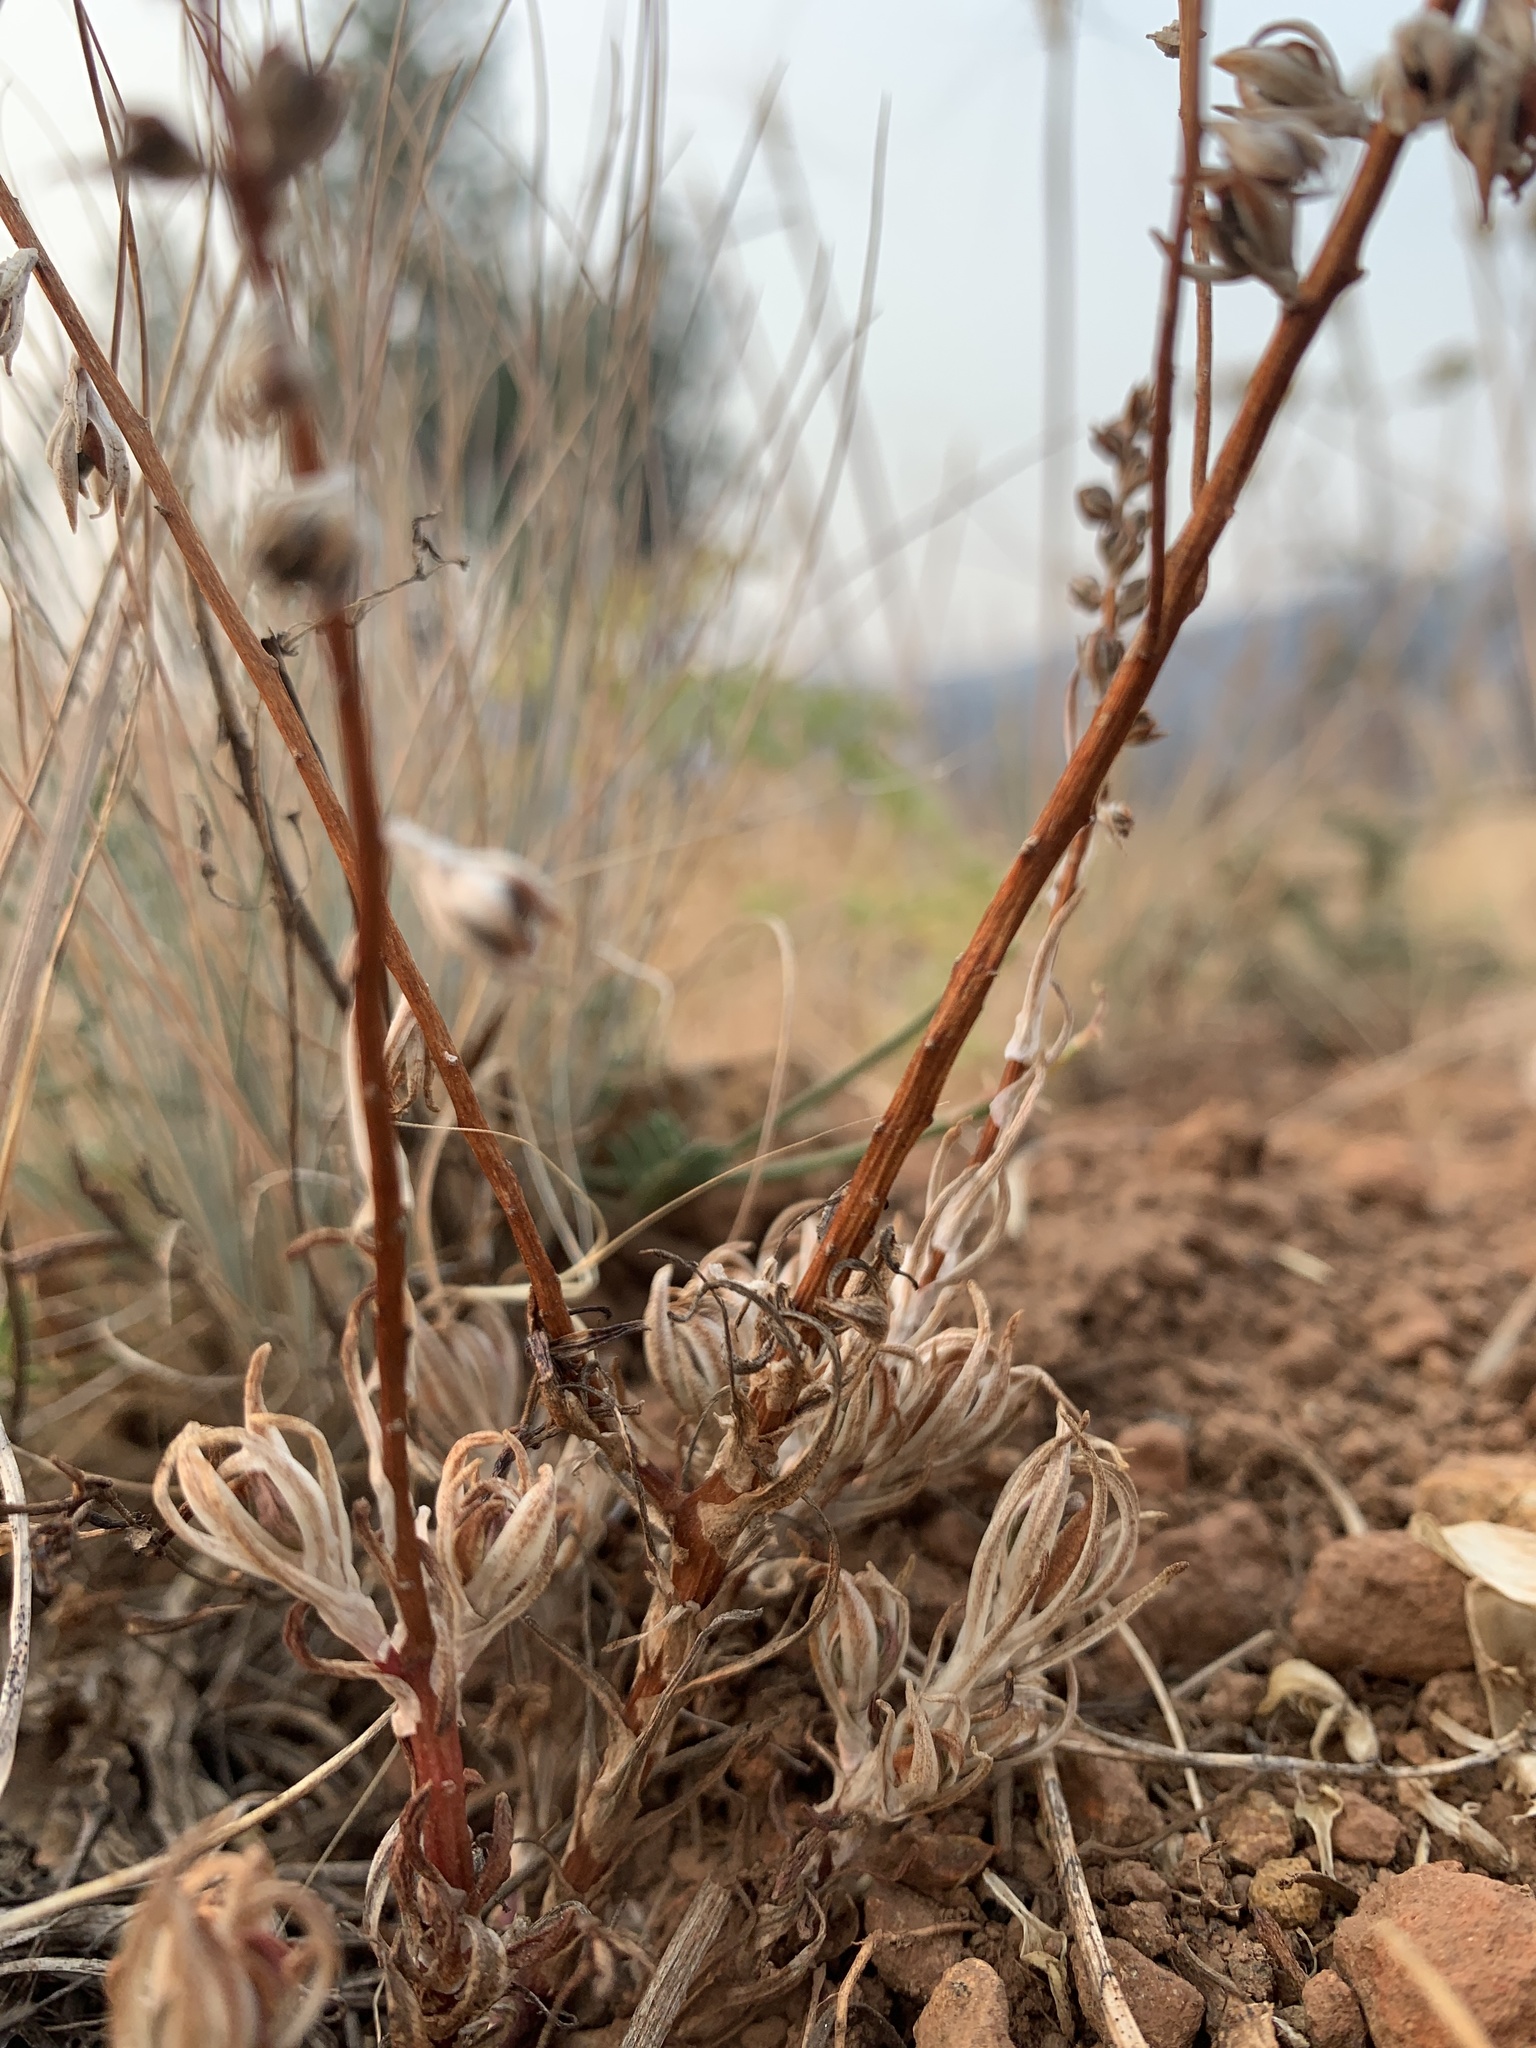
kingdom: Plantae
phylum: Tracheophyta
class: Magnoliopsida
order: Saxifragales
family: Crassulaceae
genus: Sedum
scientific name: Sedum stenopetalum
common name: Narrow-petaled stonecrop
